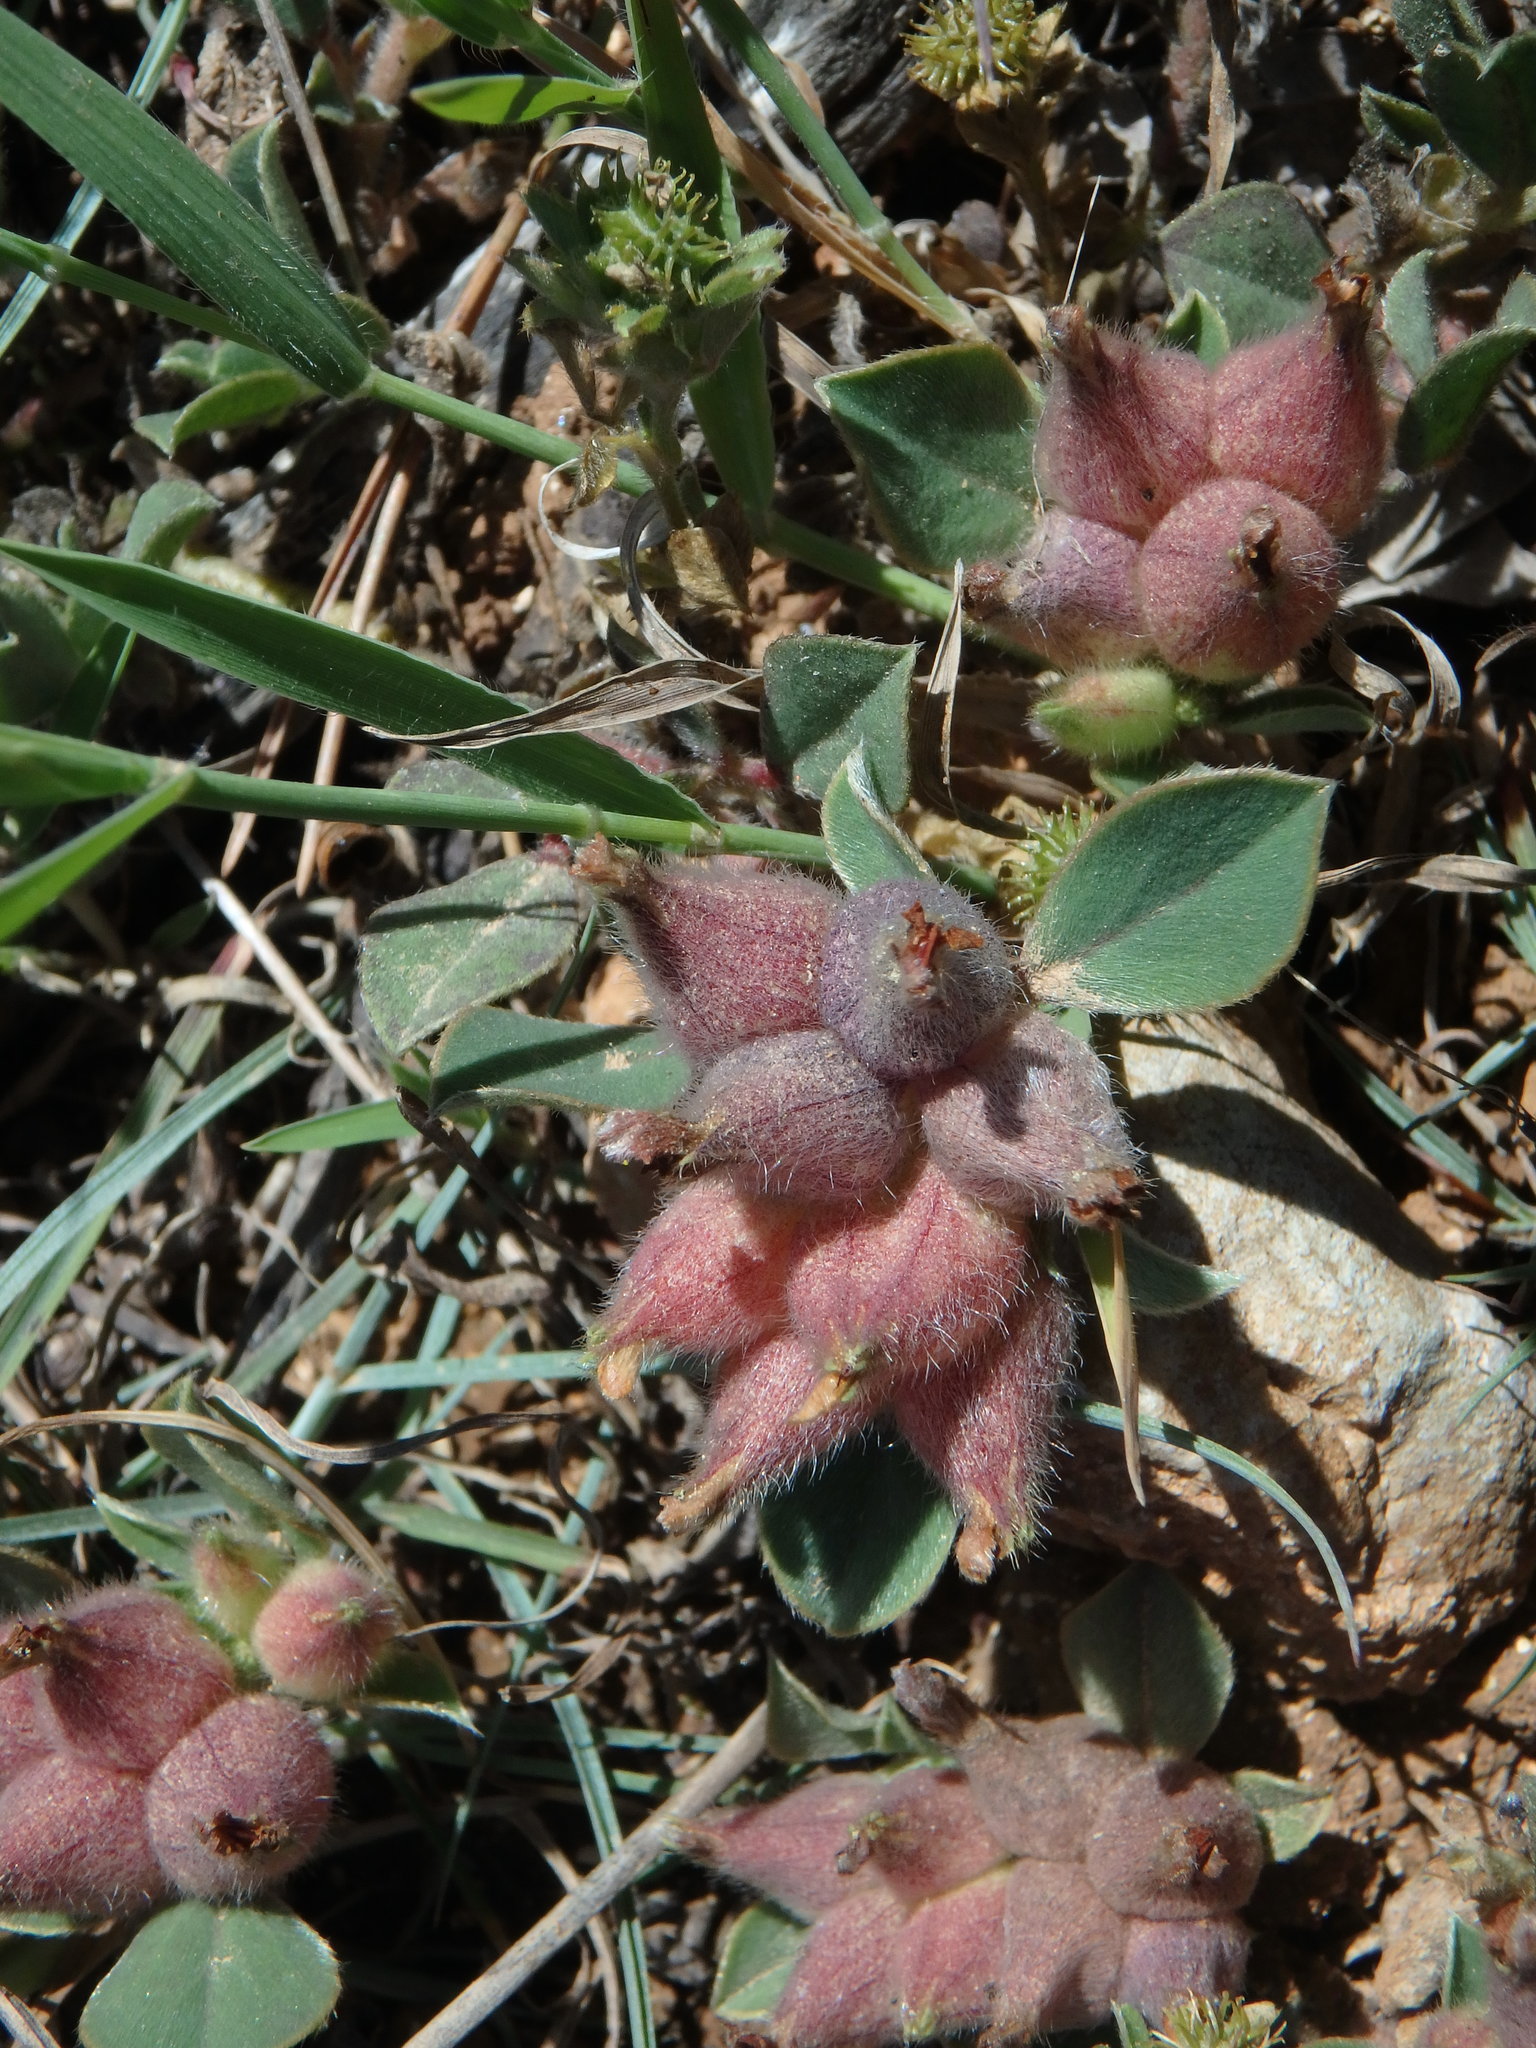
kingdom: Plantae
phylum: Tracheophyta
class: Magnoliopsida
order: Fabales
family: Fabaceae
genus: Tripodion
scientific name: Tripodion tetraphyllum
